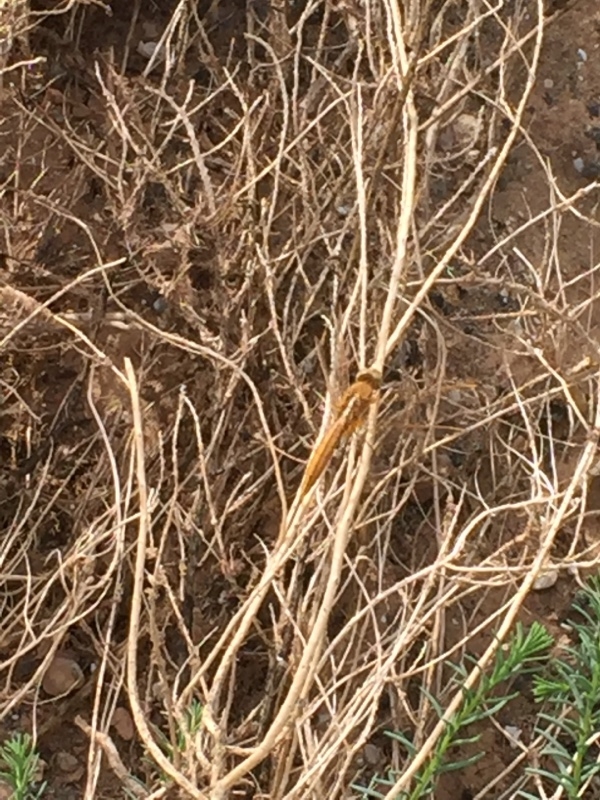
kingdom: Animalia
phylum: Arthropoda
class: Insecta
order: Odonata
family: Libellulidae
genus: Crocothemis
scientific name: Crocothemis erythraea
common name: Scarlet dragonfly
